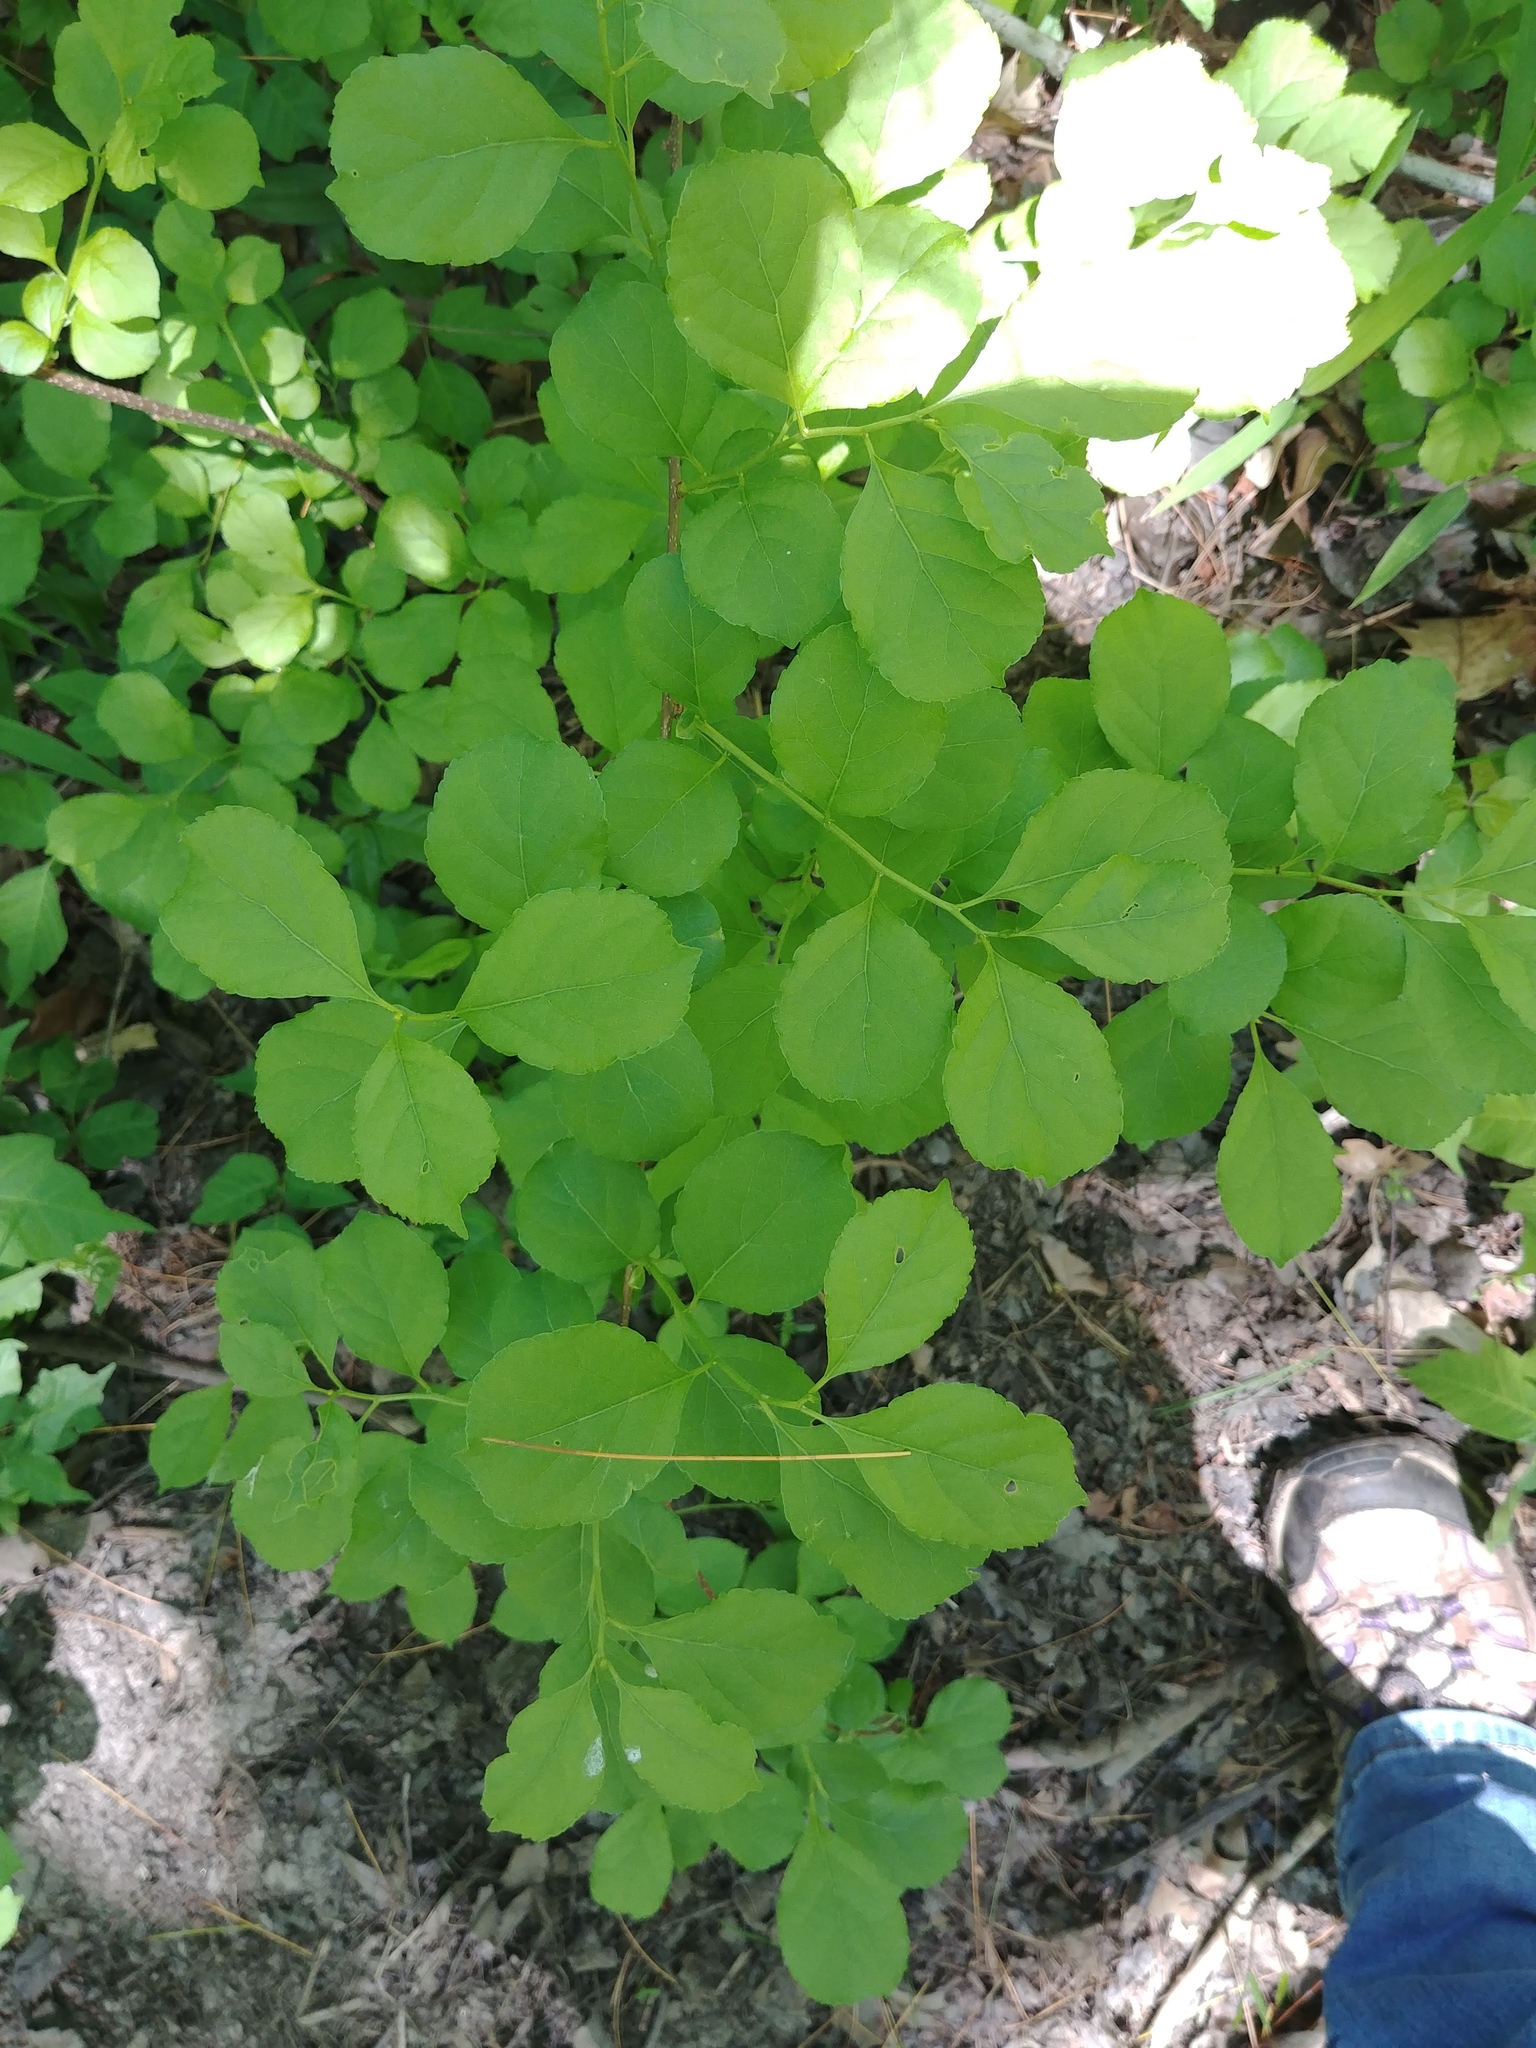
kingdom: Plantae
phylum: Tracheophyta
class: Magnoliopsida
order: Celastrales
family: Celastraceae
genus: Celastrus
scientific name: Celastrus orbiculatus
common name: Oriental bittersweet
